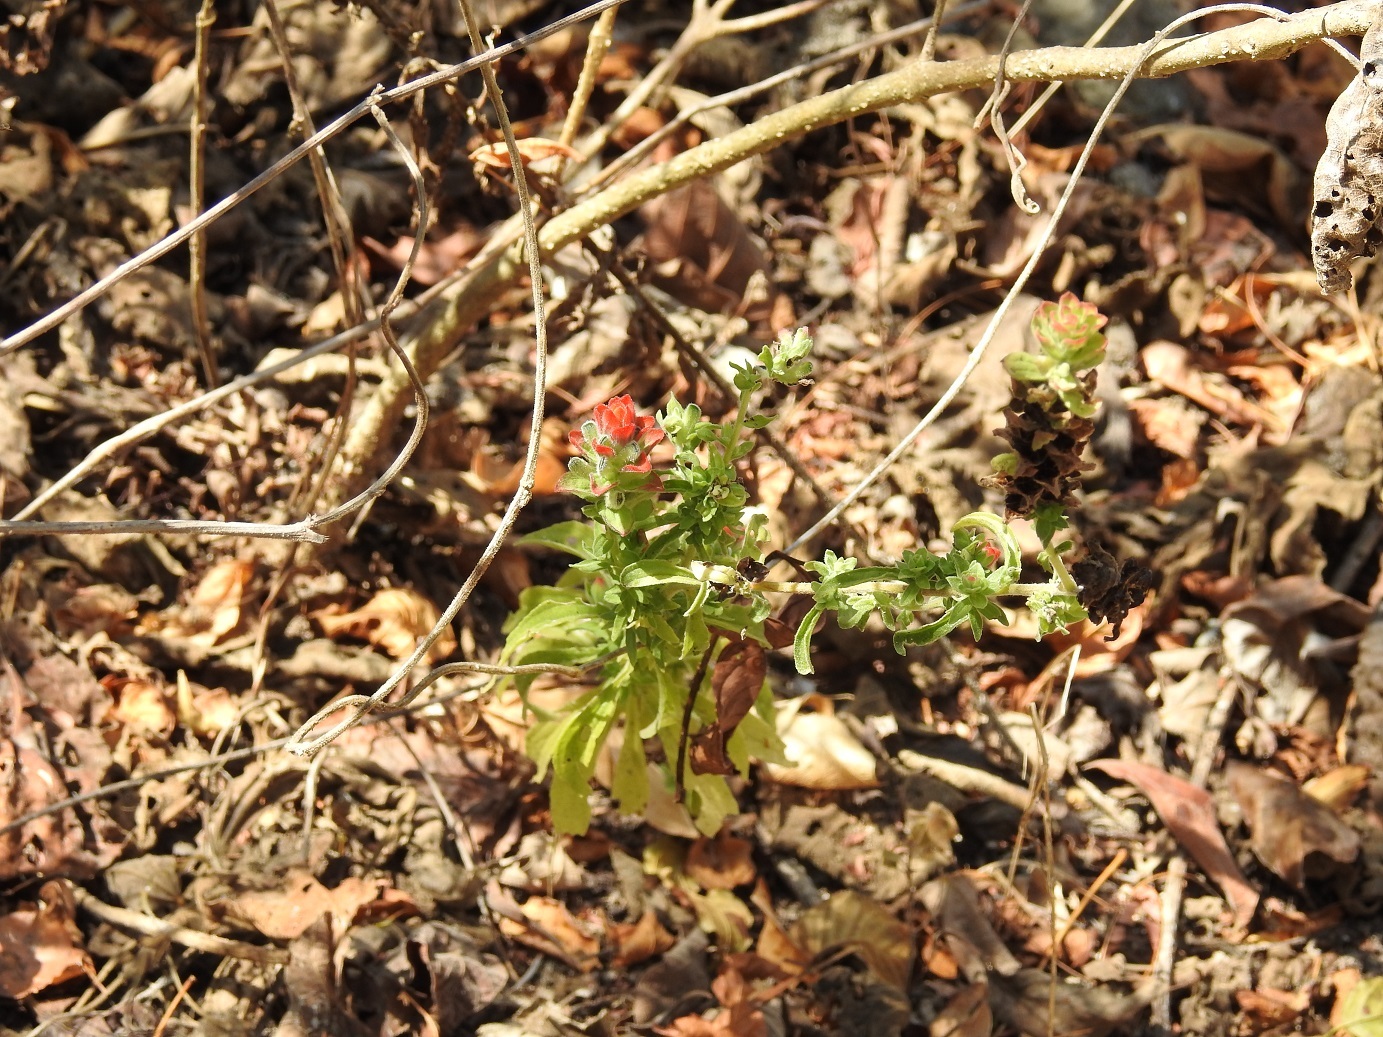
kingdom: Plantae
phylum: Tracheophyta
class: Magnoliopsida
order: Lamiales
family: Orobanchaceae
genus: Castilleja
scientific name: Castilleja arvensis
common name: Indian paintbrush
